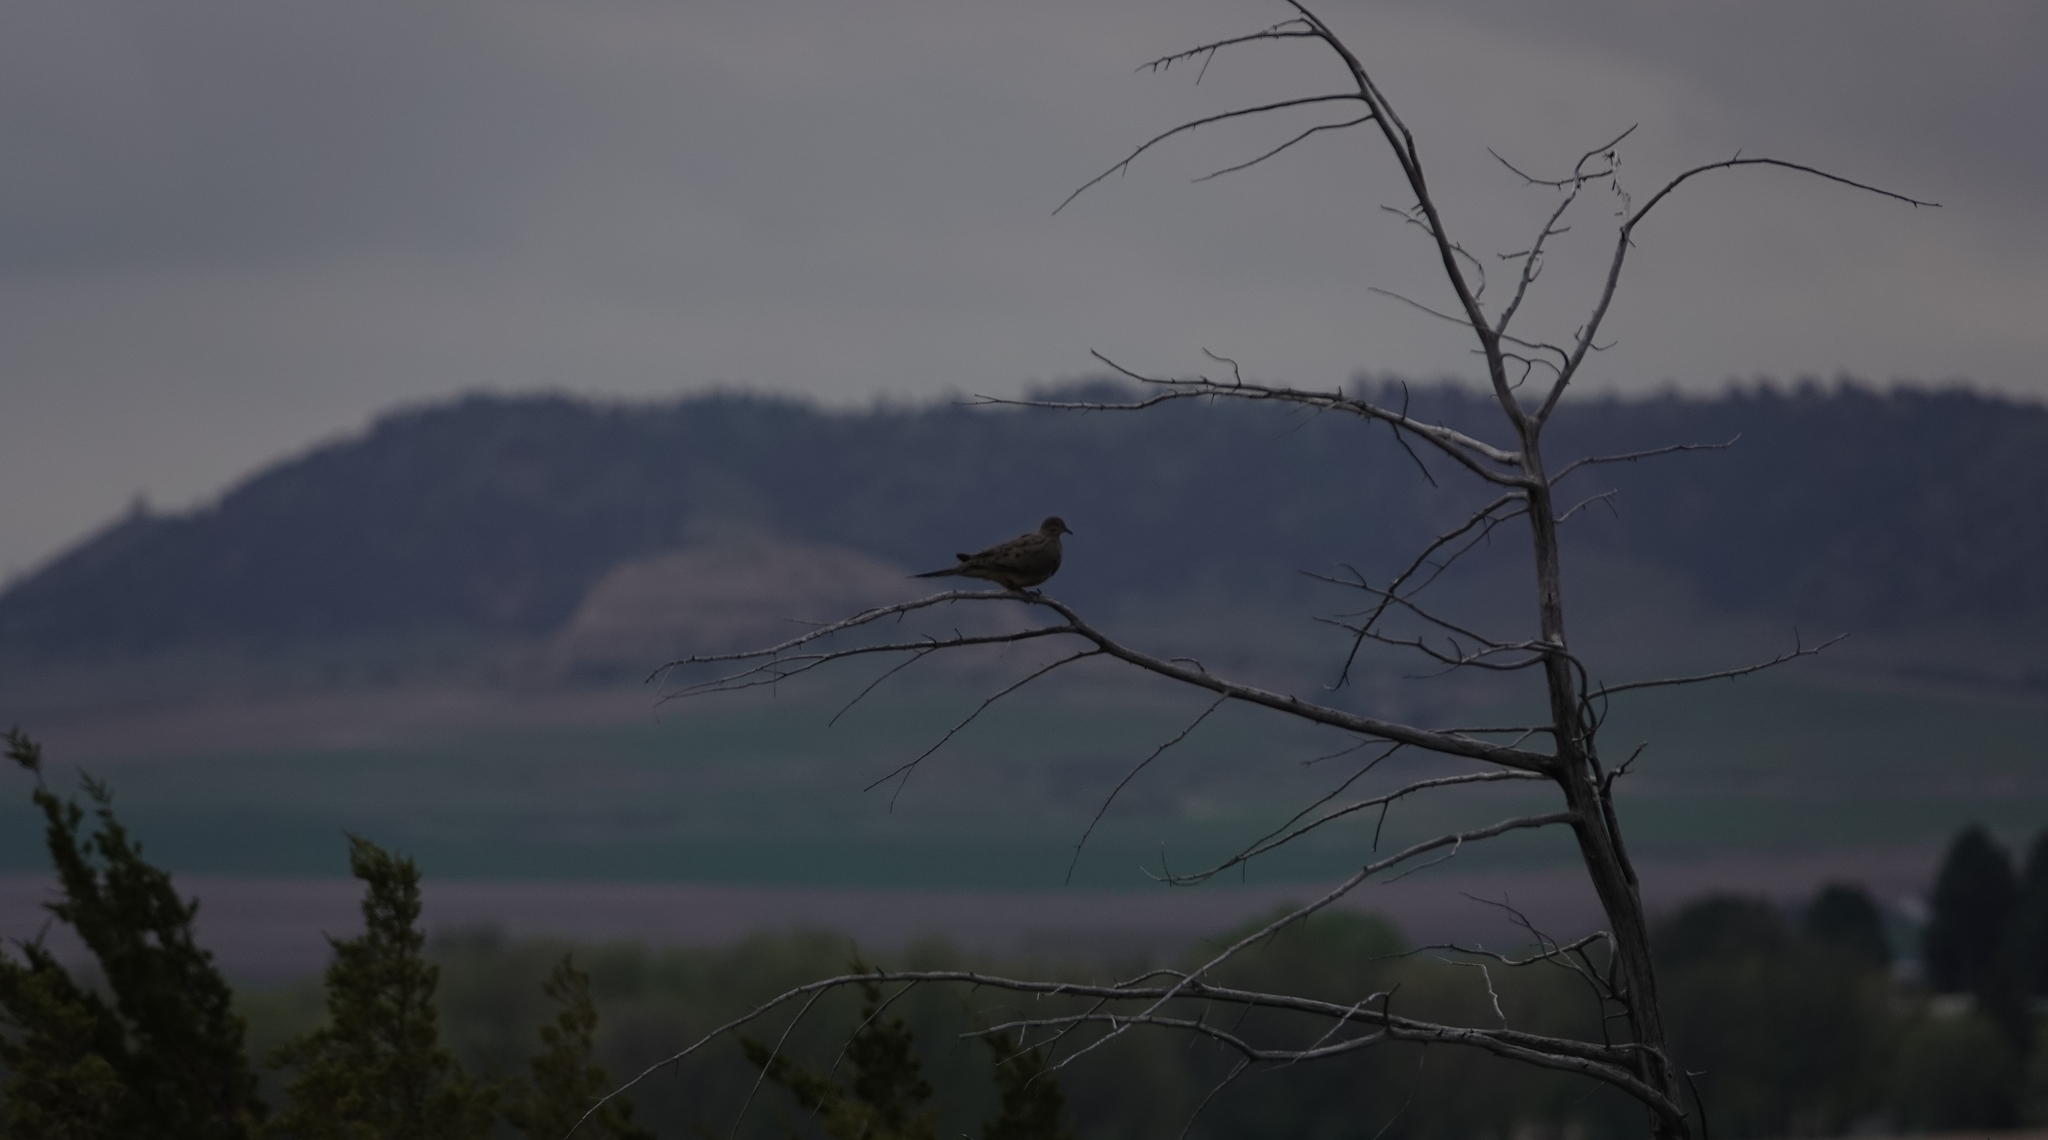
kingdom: Animalia
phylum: Chordata
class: Aves
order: Columbiformes
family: Columbidae
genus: Zenaida
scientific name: Zenaida macroura
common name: Mourning dove
